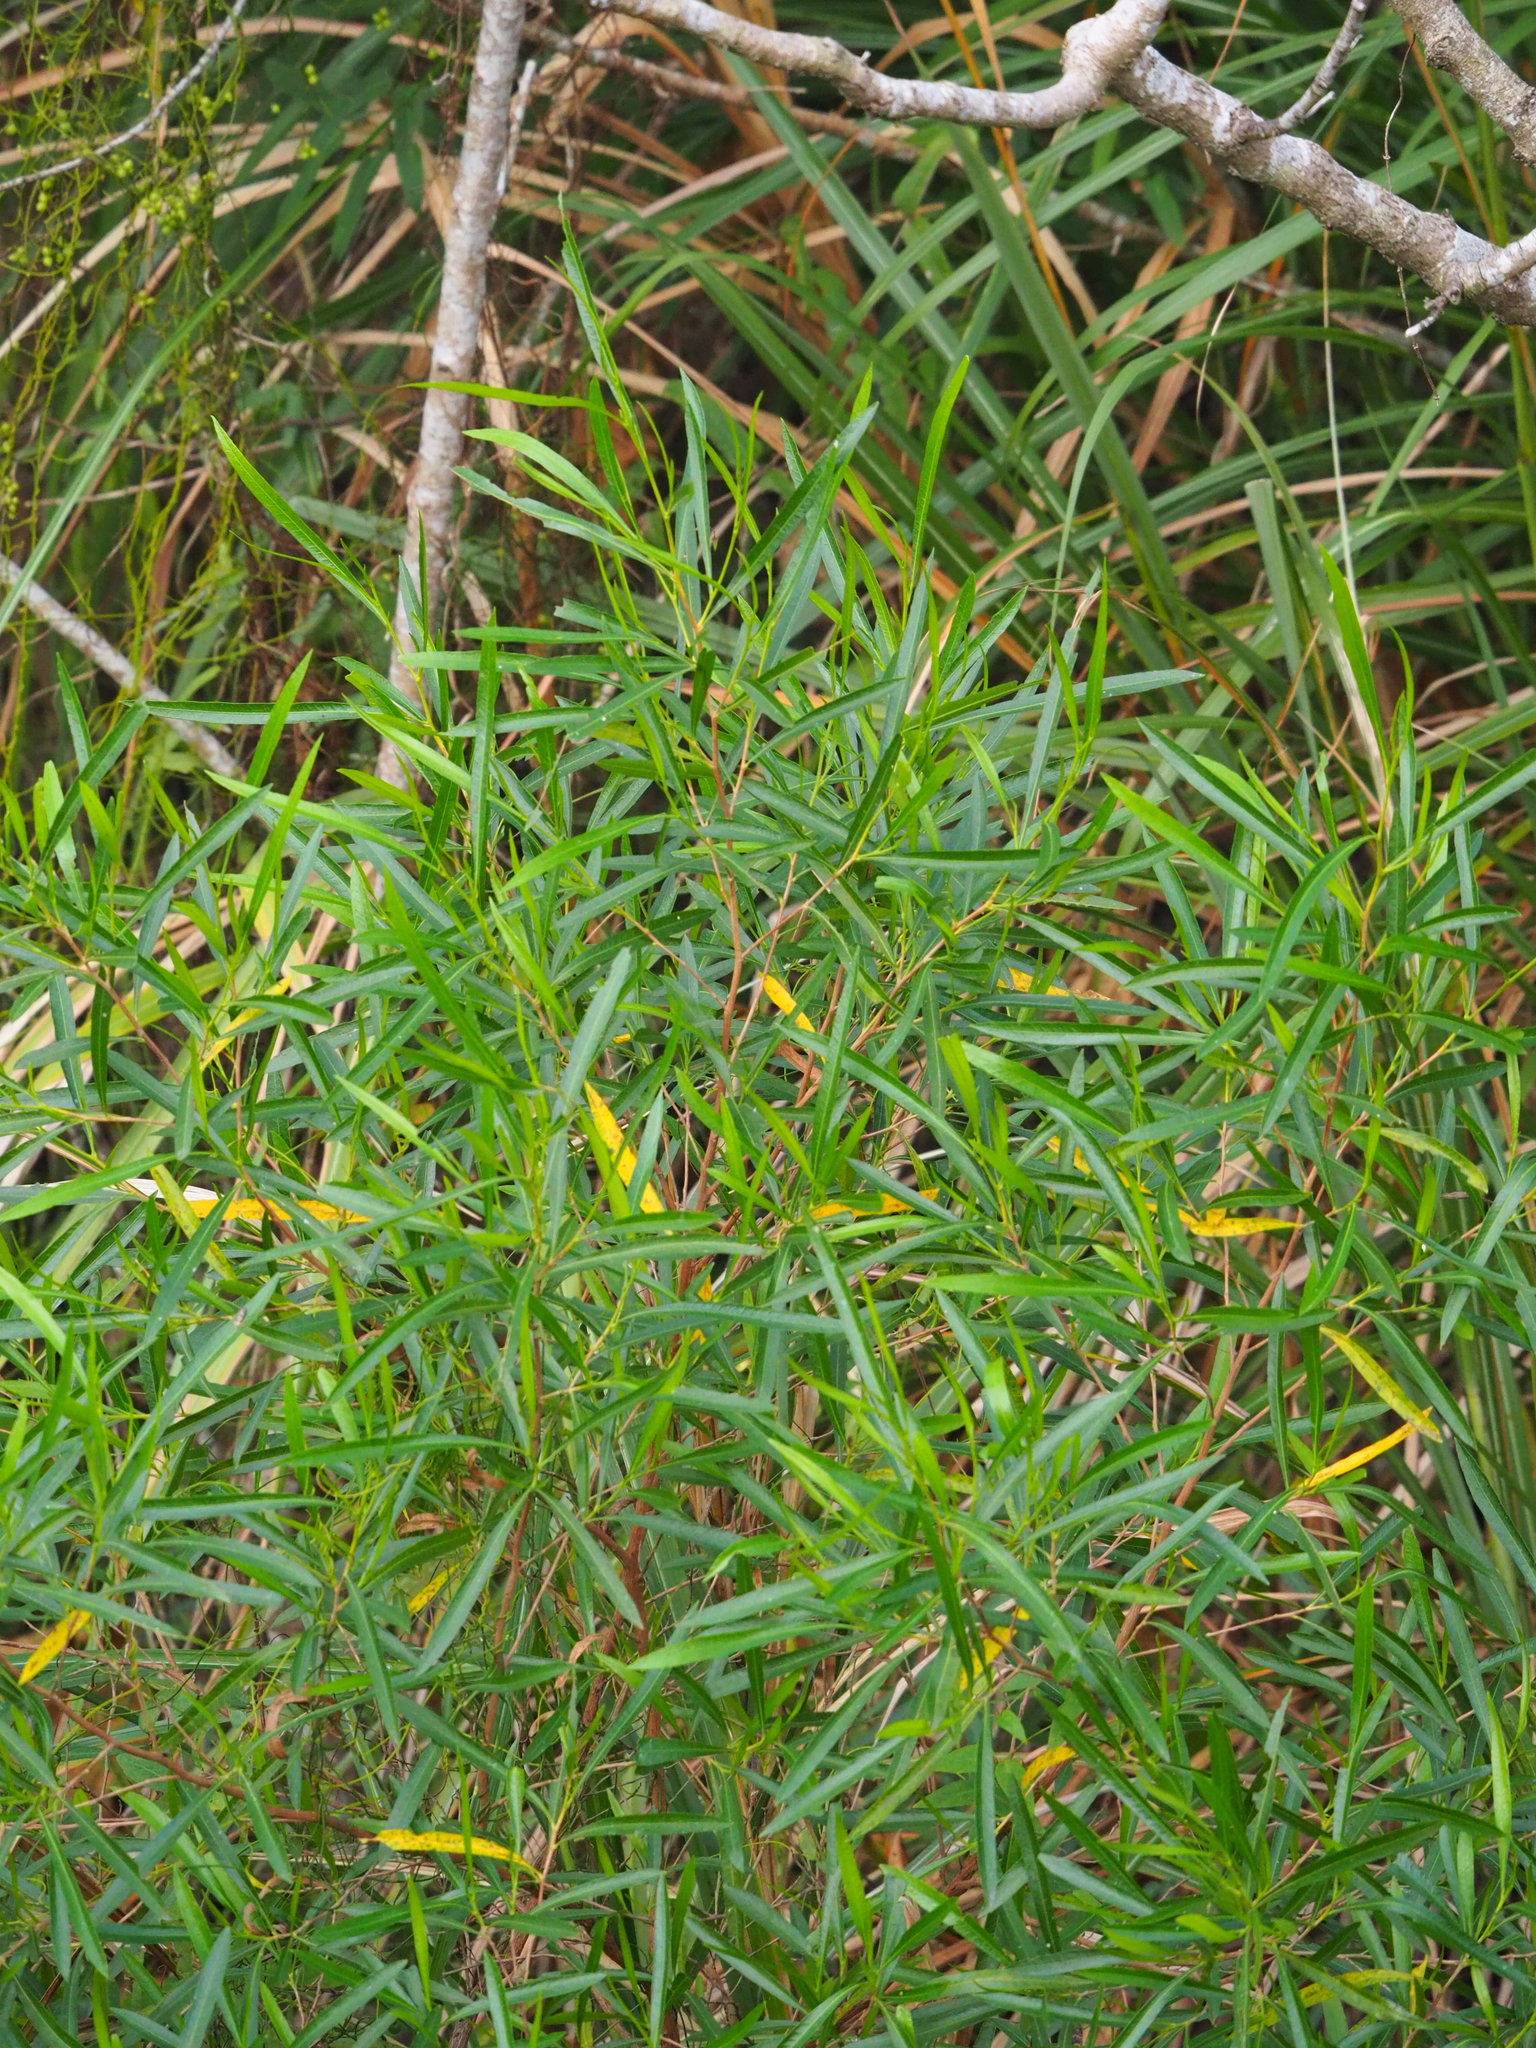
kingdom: Plantae
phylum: Tracheophyta
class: Magnoliopsida
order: Sapindales
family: Sapindaceae
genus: Dodonaea
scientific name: Dodonaea viscosa
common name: Hopbush
